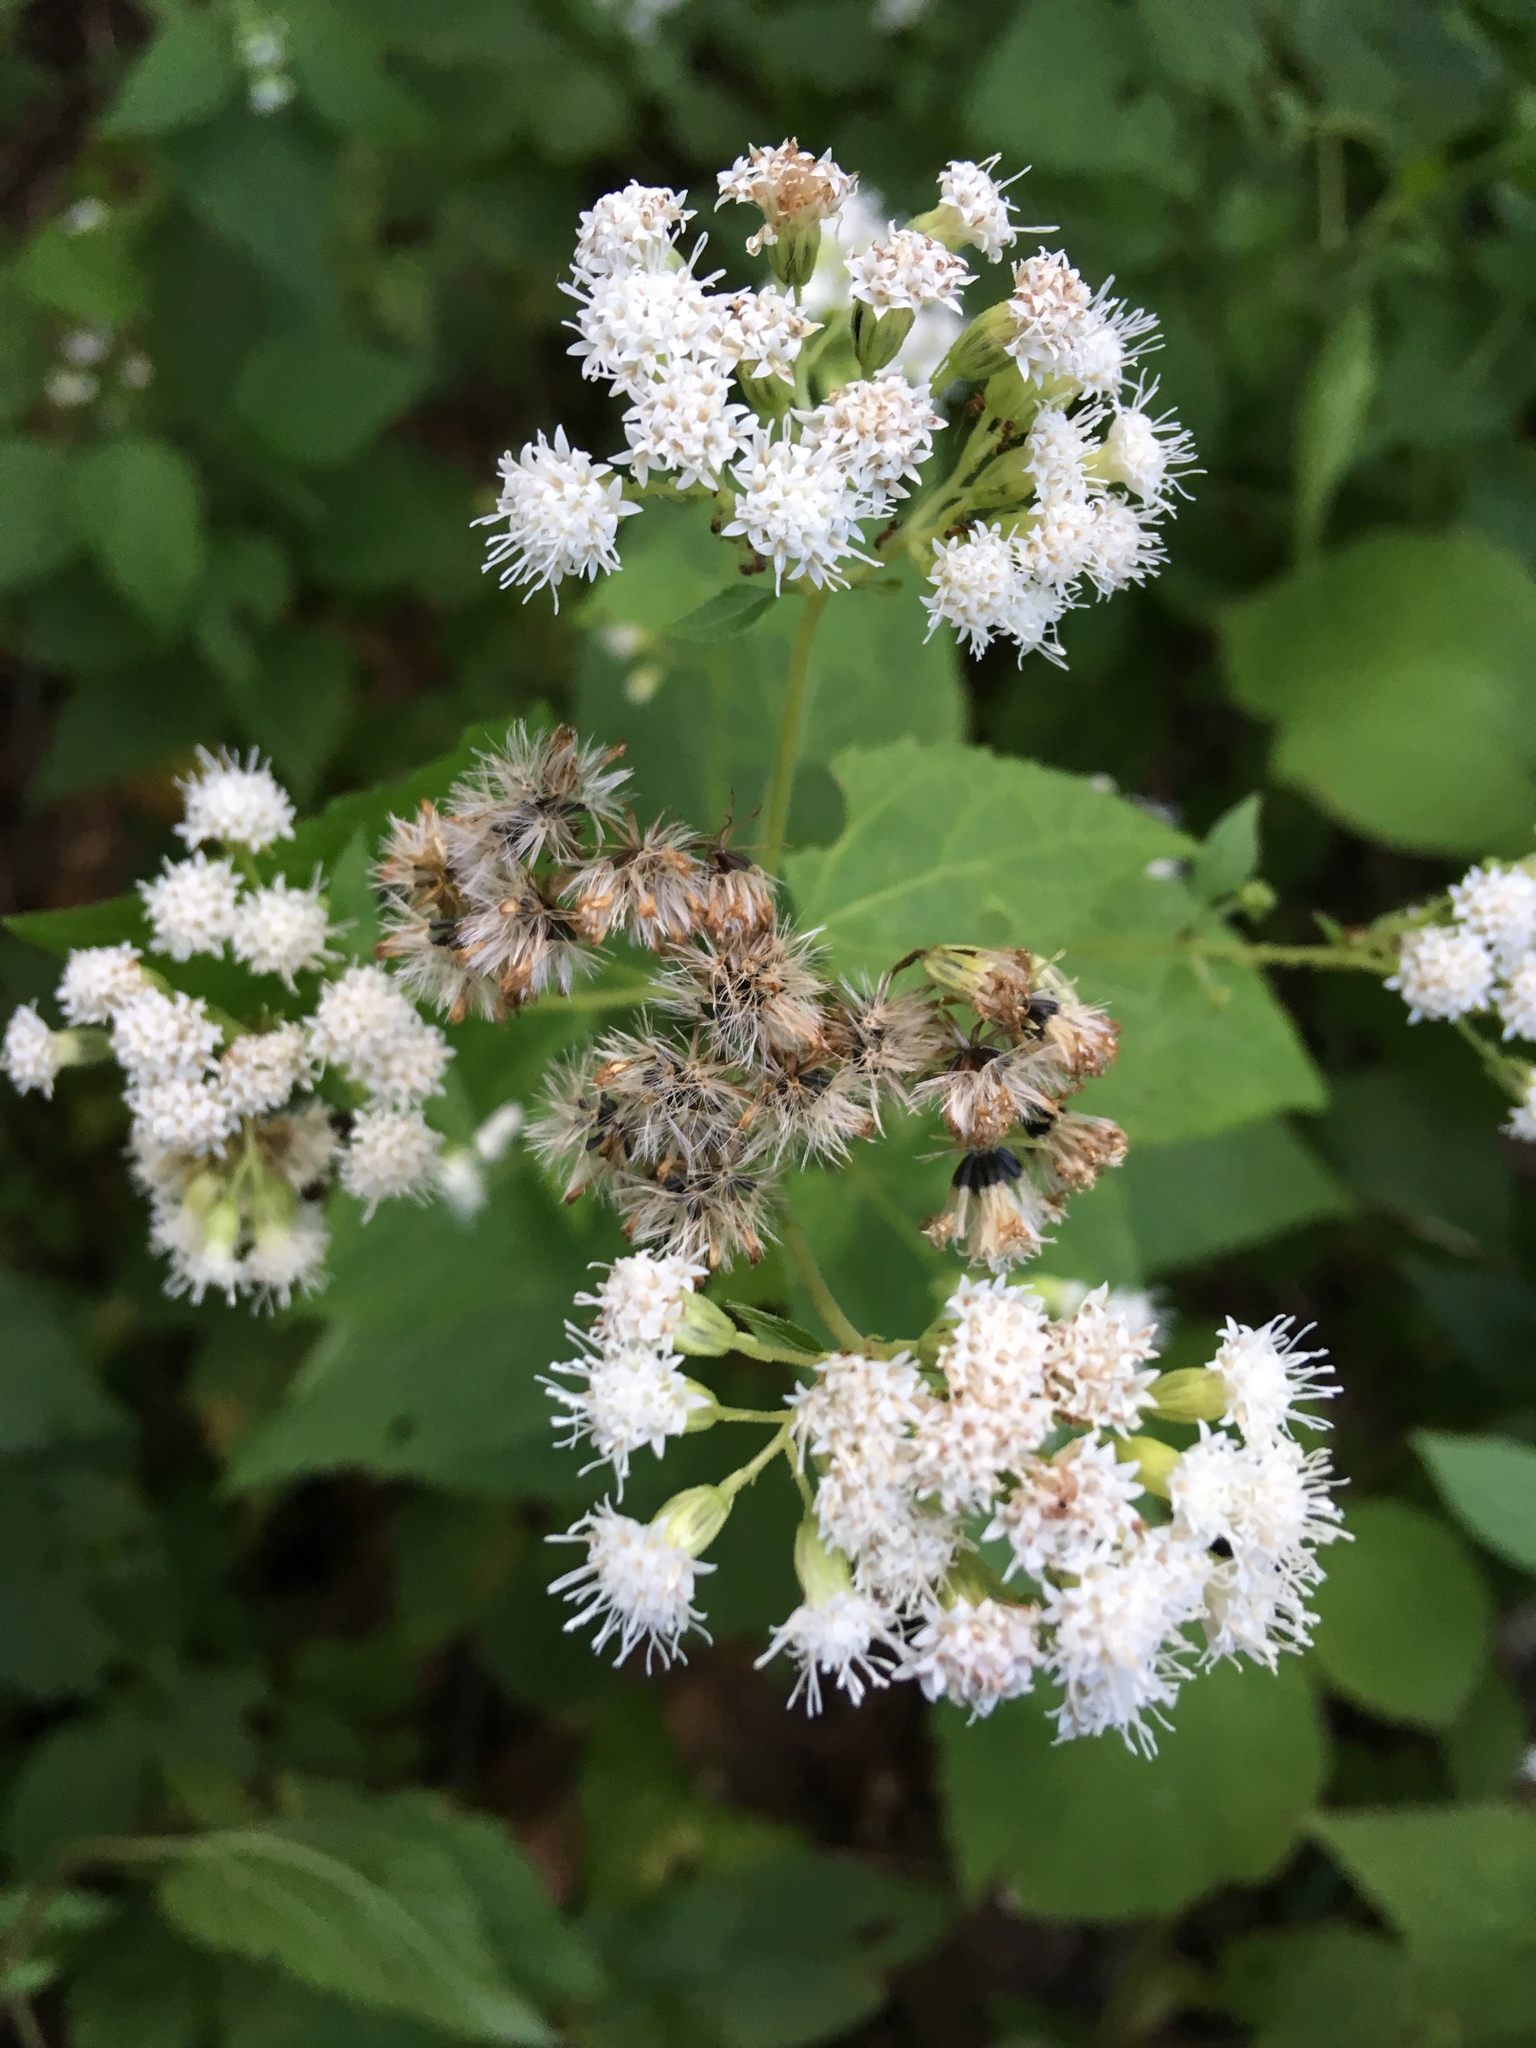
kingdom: Plantae
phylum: Tracheophyta
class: Magnoliopsida
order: Asterales
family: Asteraceae
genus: Ageratina
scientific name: Ageratina altissima
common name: White snakeroot
